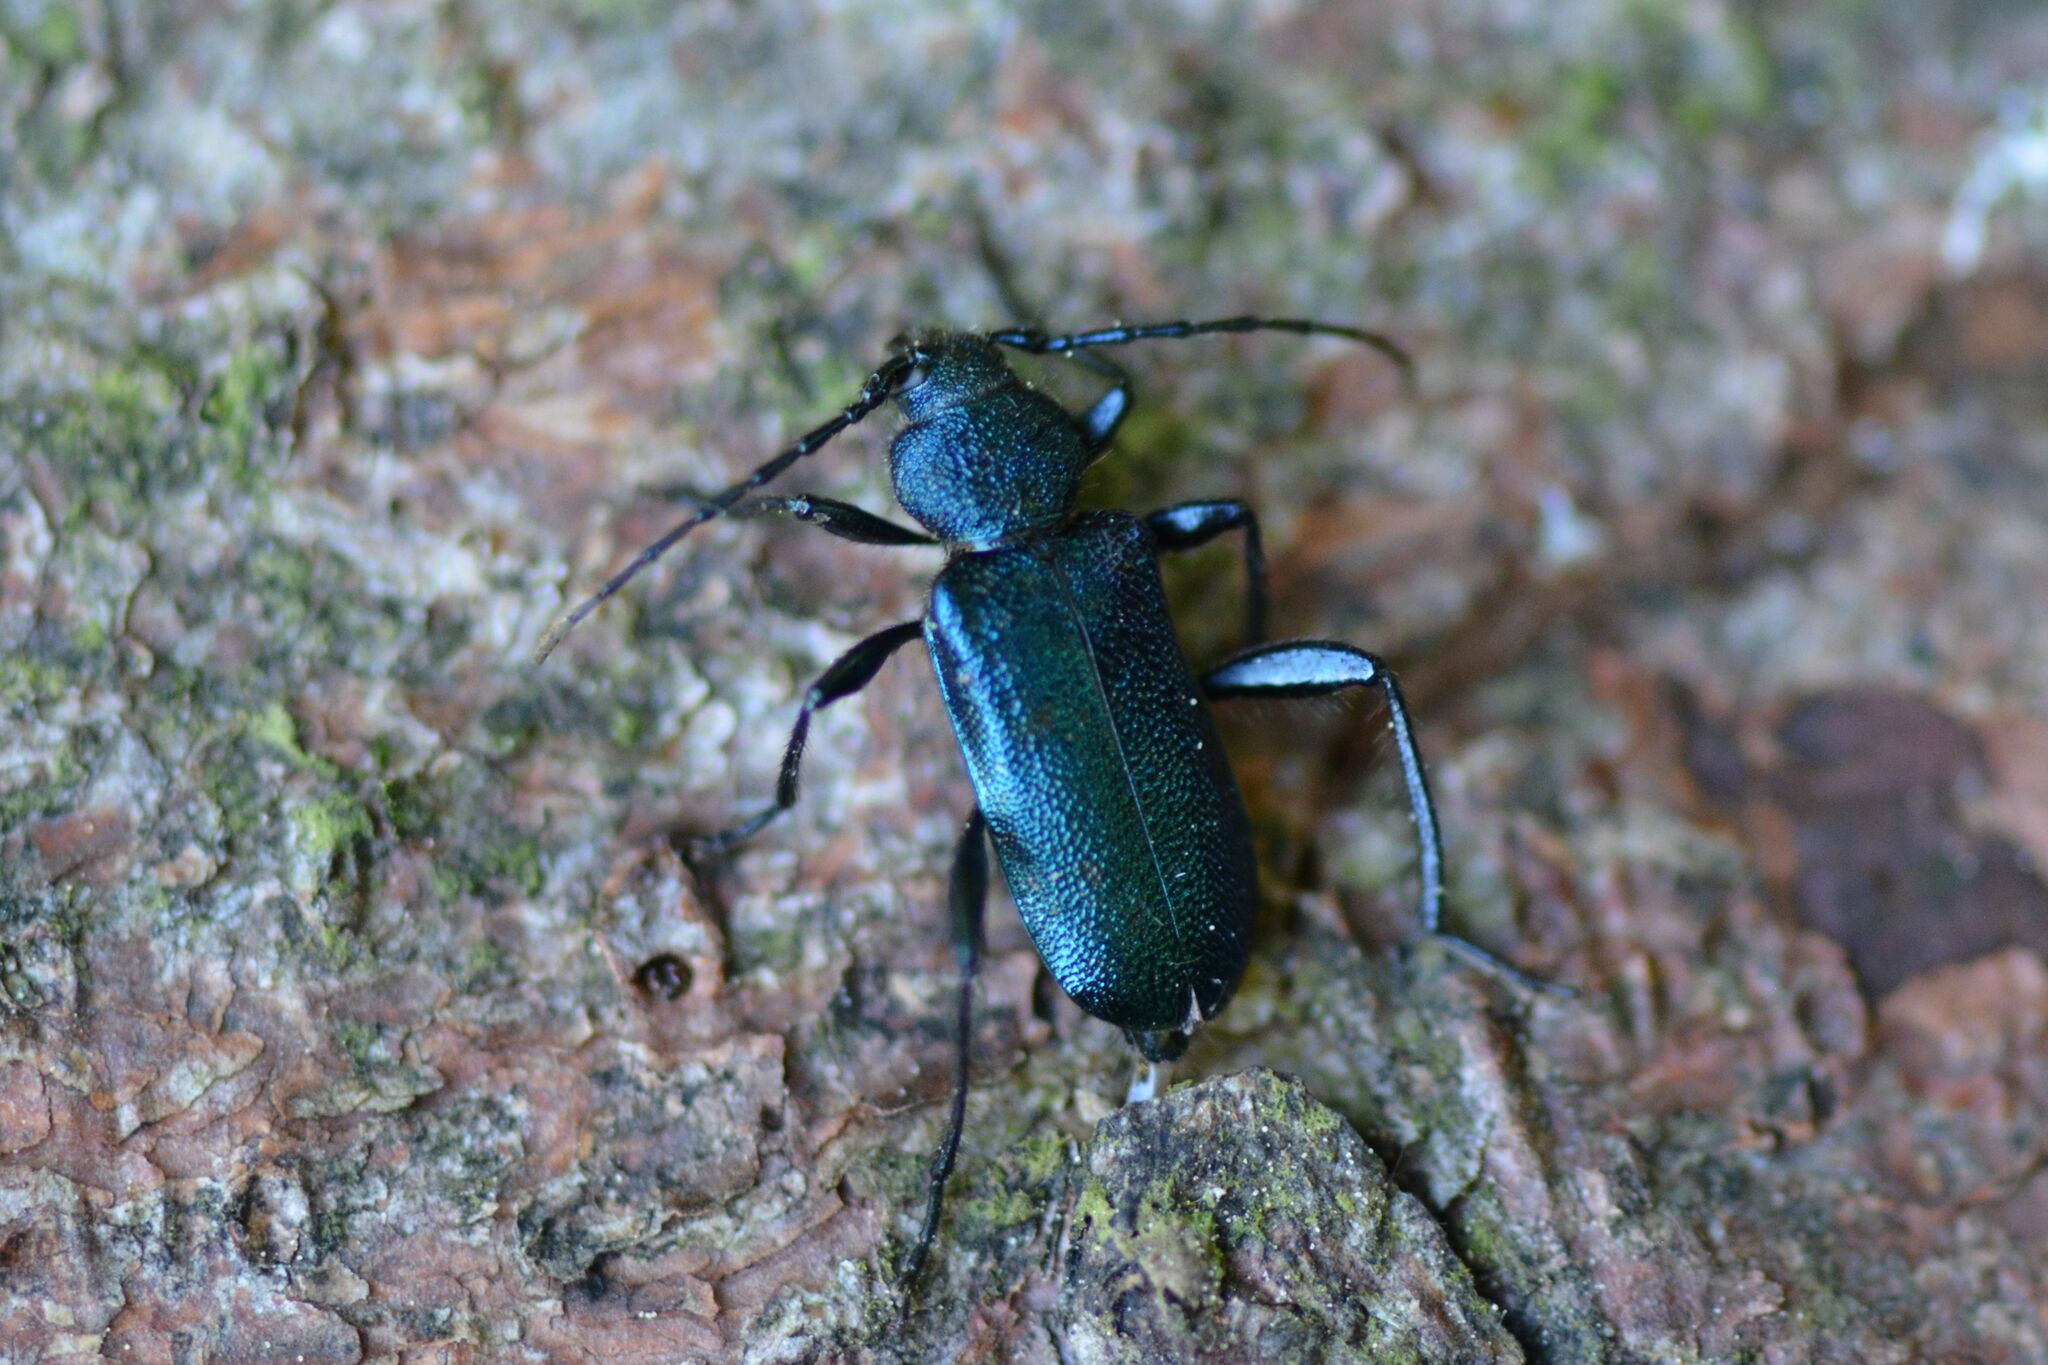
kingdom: Animalia
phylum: Arthropoda
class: Insecta
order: Coleoptera
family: Cerambycidae
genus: Callidium
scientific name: Callidium violaceum
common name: Violet tanbark beetle
